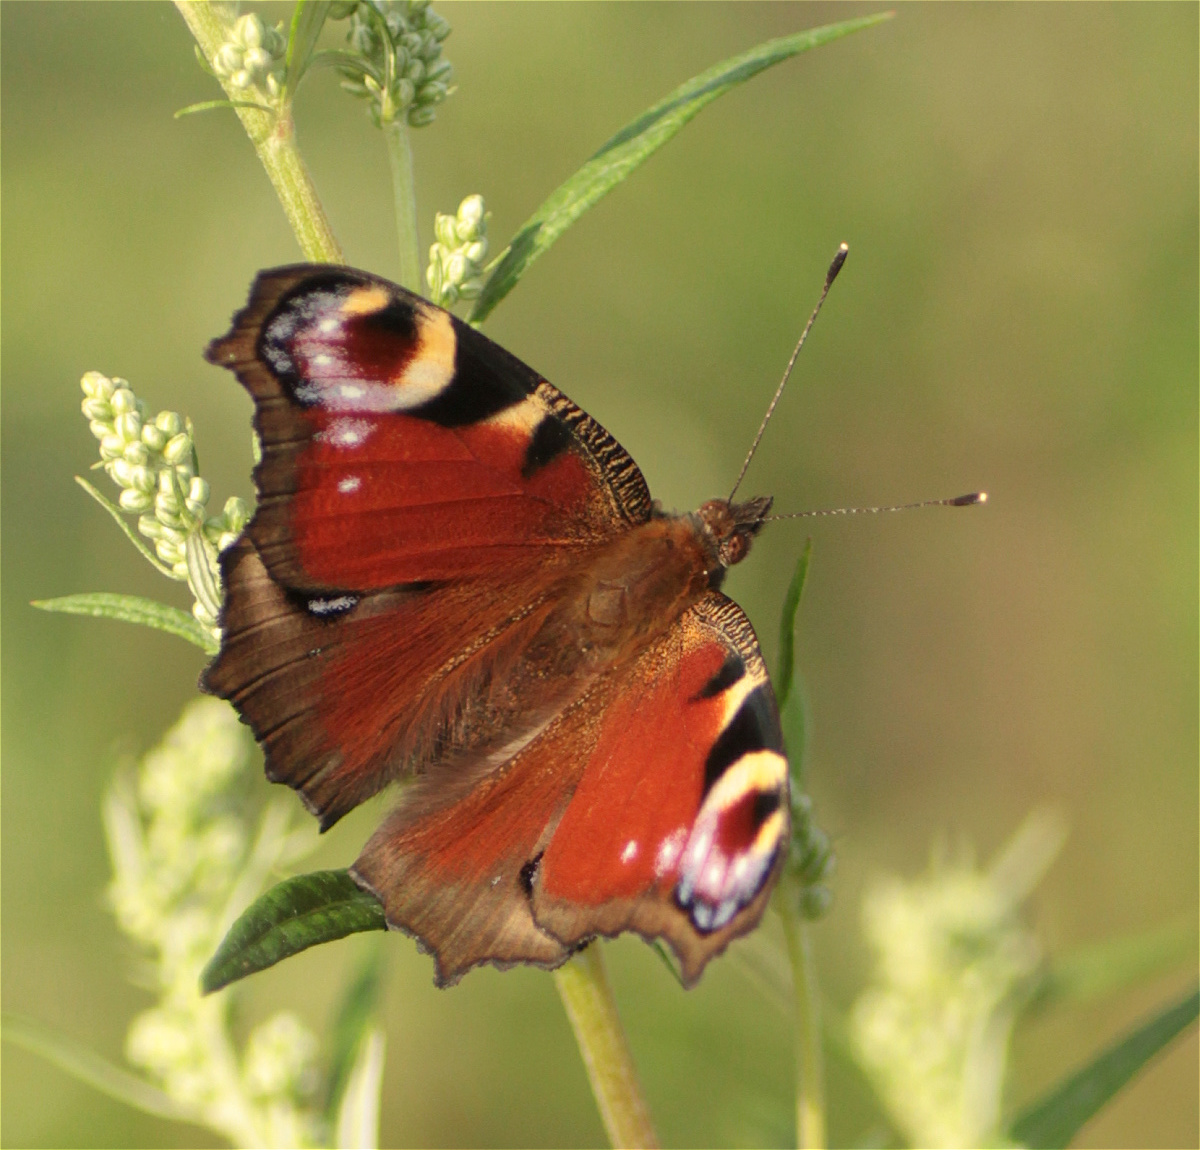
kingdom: Animalia
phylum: Arthropoda
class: Insecta
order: Lepidoptera
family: Nymphalidae
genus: Aglais
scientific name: Aglais io
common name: Peacock
